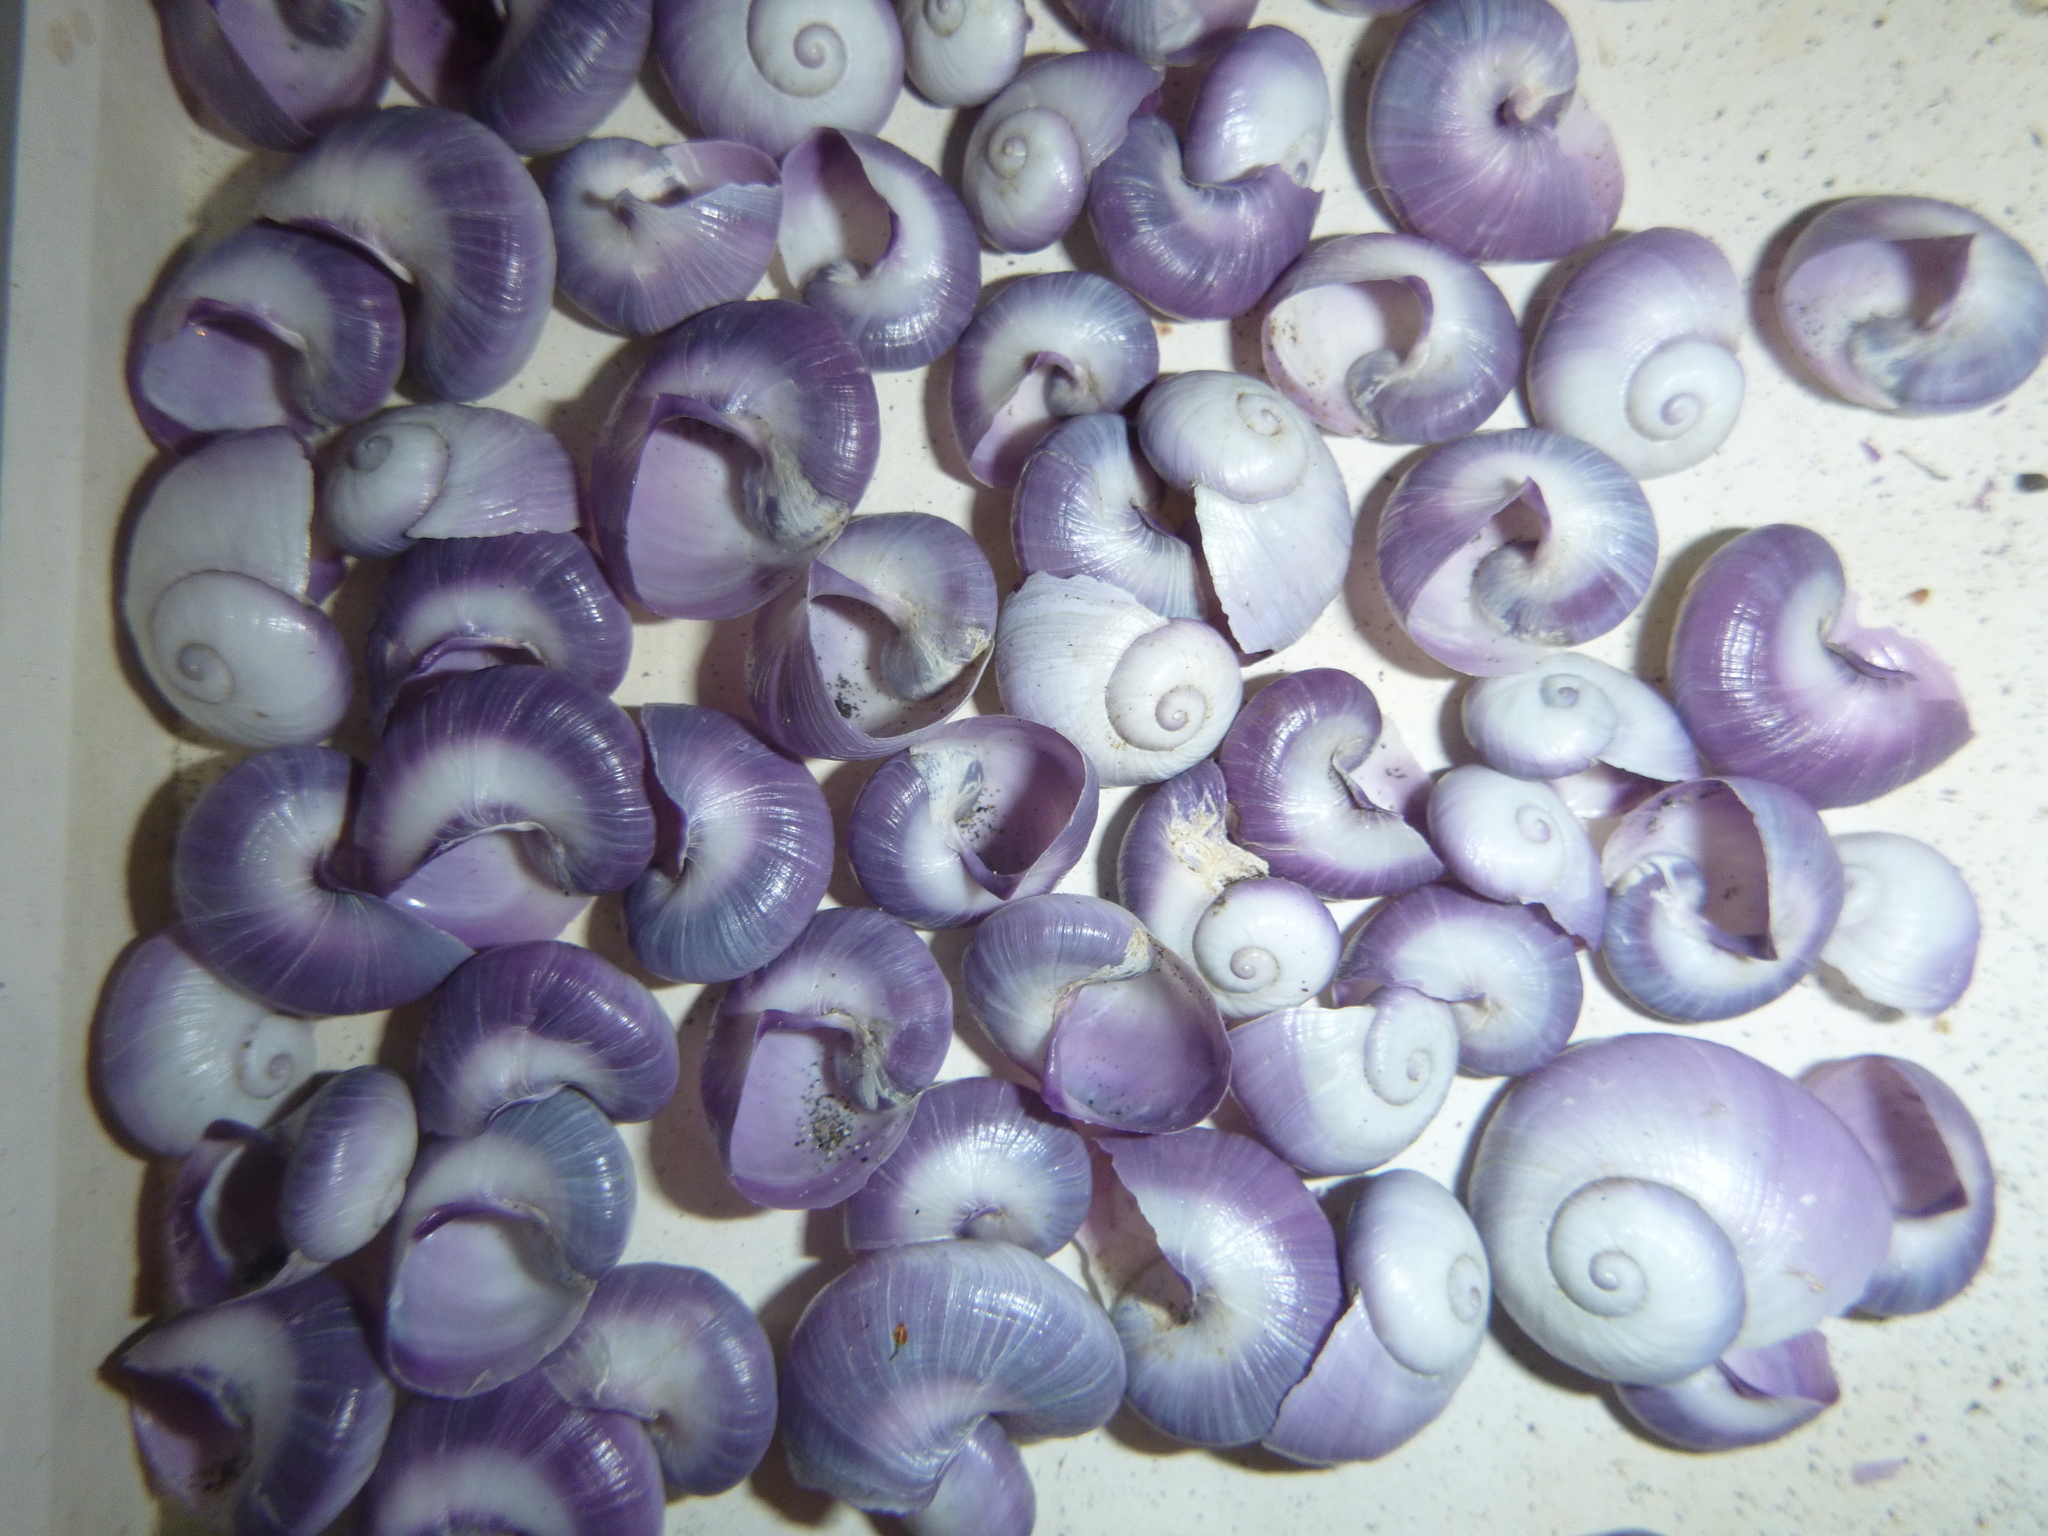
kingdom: Animalia
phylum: Mollusca
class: Gastropoda
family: Epitoniidae
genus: Janthina
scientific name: Janthina janthina
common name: Common janthina
